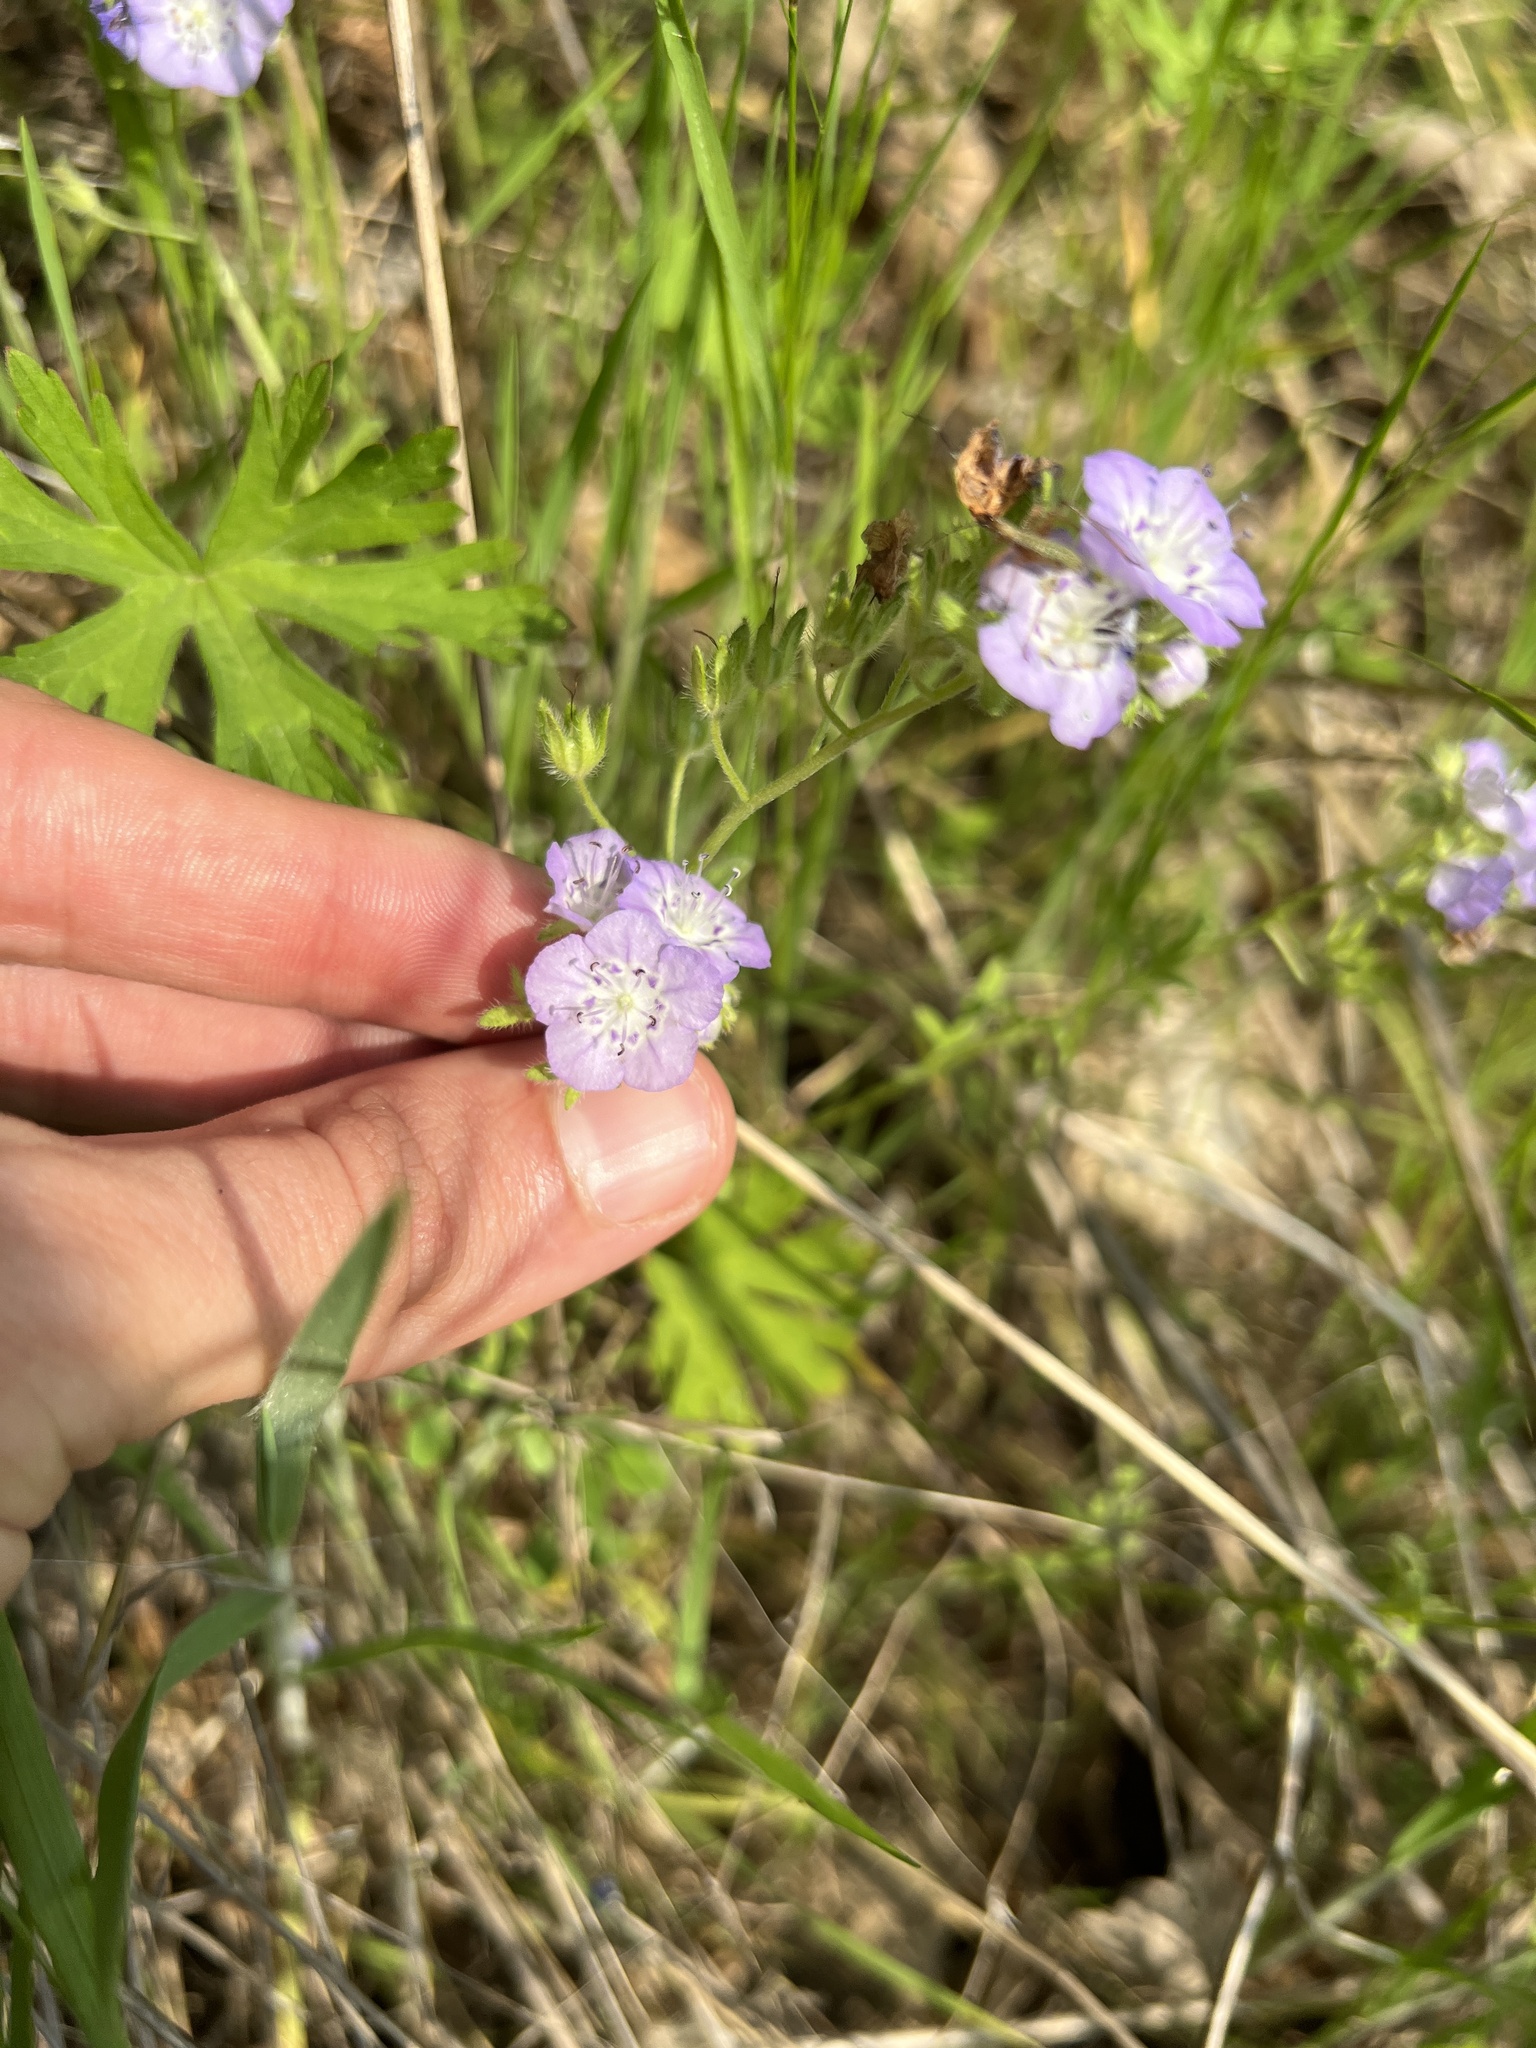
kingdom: Plantae
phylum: Tracheophyta
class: Magnoliopsida
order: Boraginales
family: Hydrophyllaceae
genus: Phacelia
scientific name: Phacelia hirsuta
